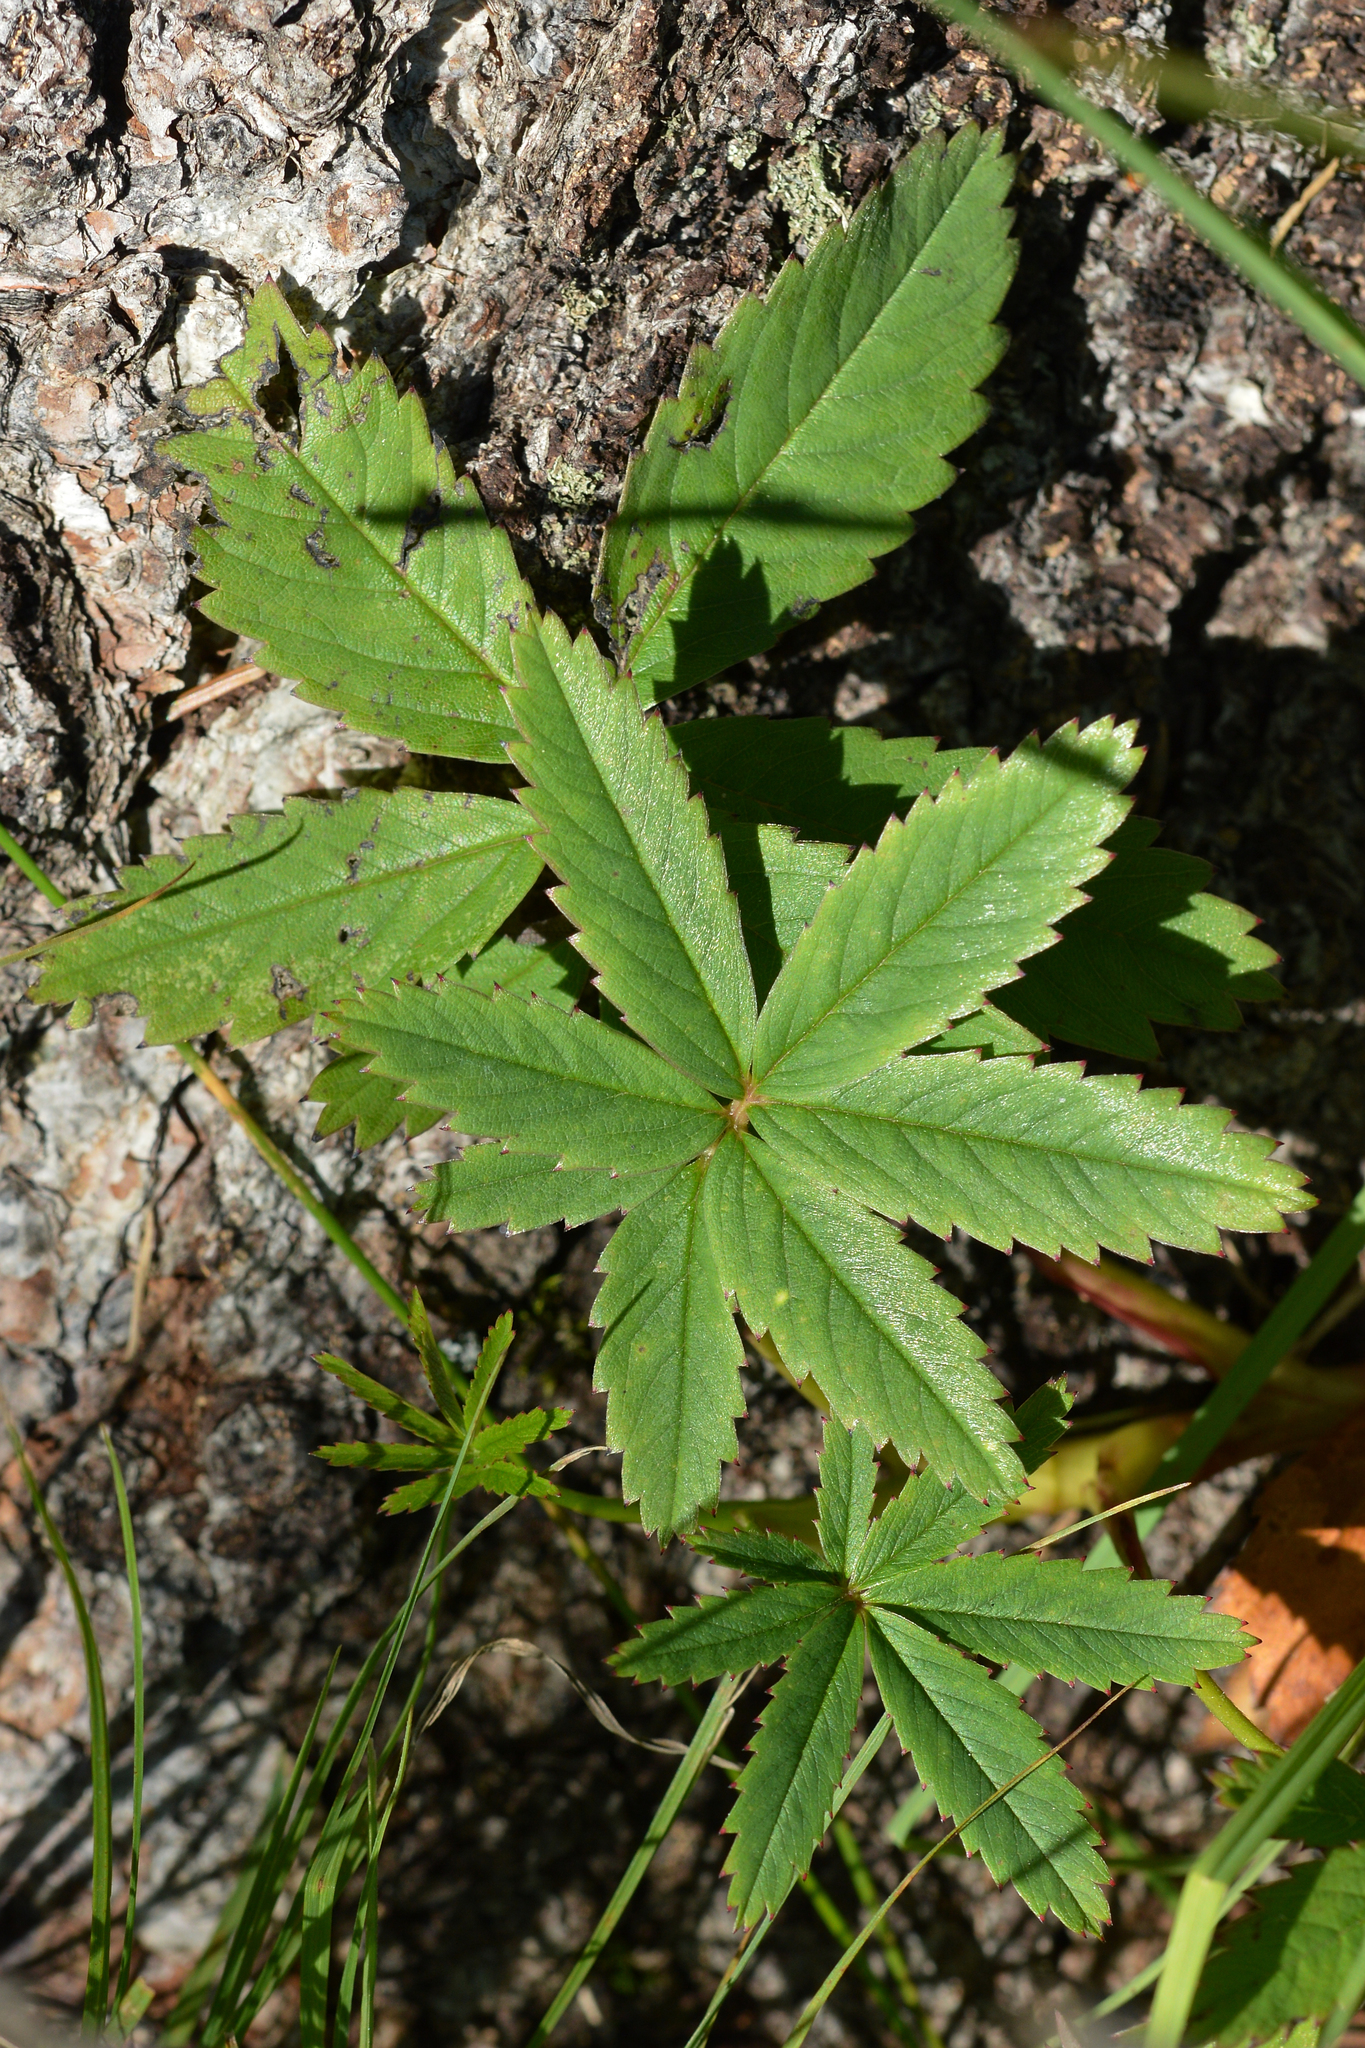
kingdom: Plantae
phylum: Tracheophyta
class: Magnoliopsida
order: Rosales
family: Rosaceae
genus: Comarum
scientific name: Comarum palustre
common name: Marsh cinquefoil
